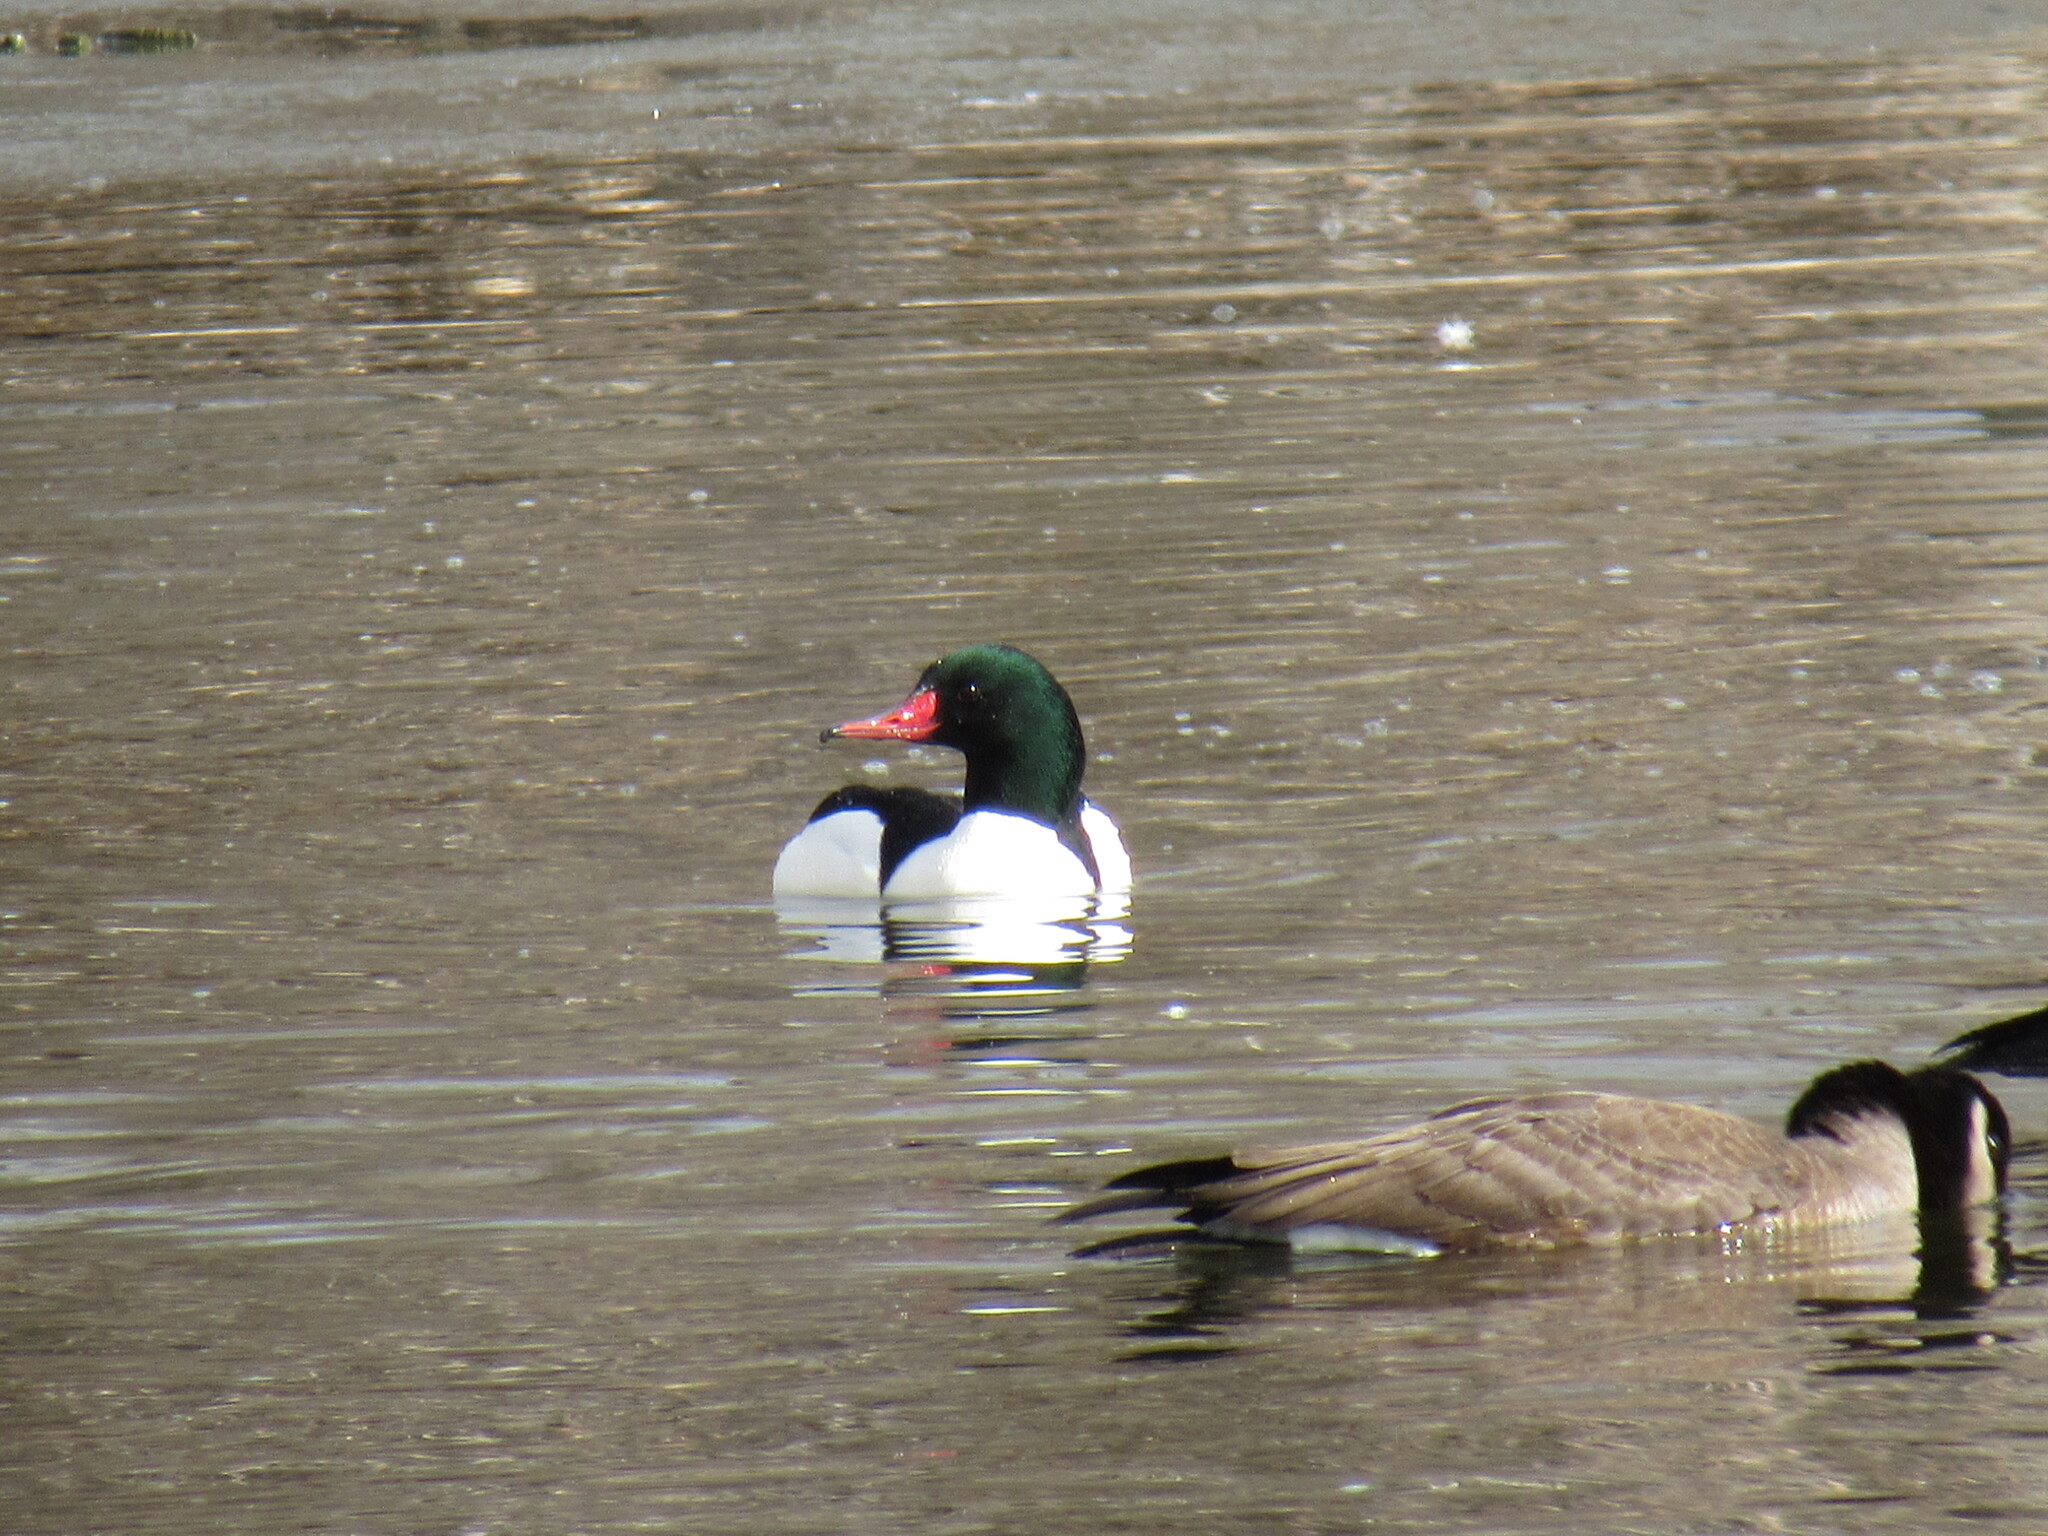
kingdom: Animalia
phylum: Chordata
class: Aves
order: Anseriformes
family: Anatidae
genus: Mergus
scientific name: Mergus merganser
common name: Common merganser
